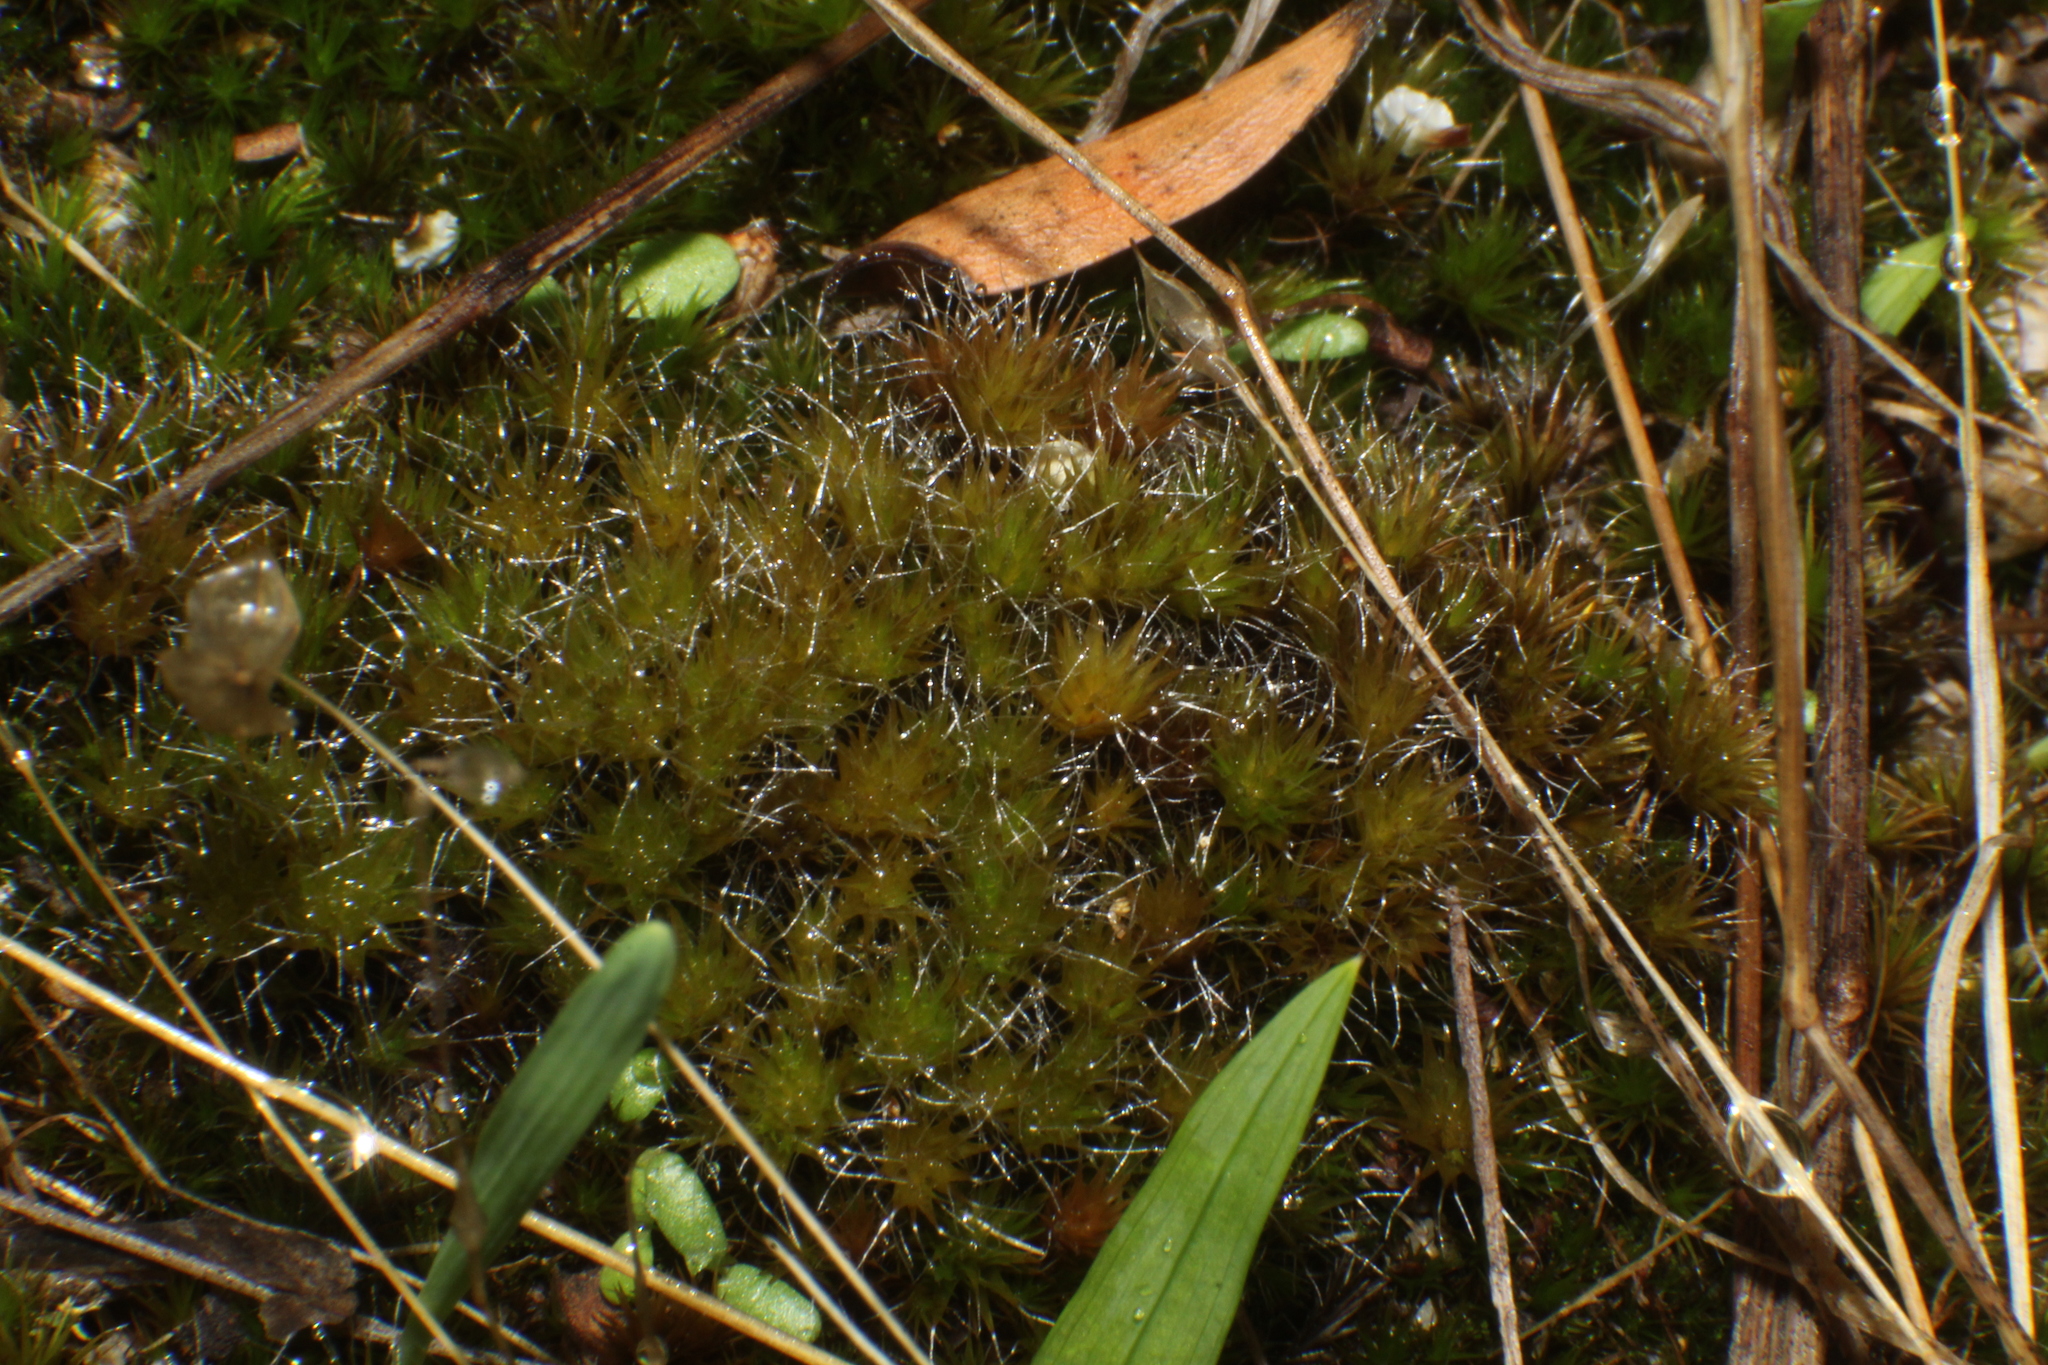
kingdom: Plantae
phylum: Bryophyta
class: Bryopsida
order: Dicranales
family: Leucobryaceae
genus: Campylopus
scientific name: Campylopus introflexus
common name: Heath star moss
